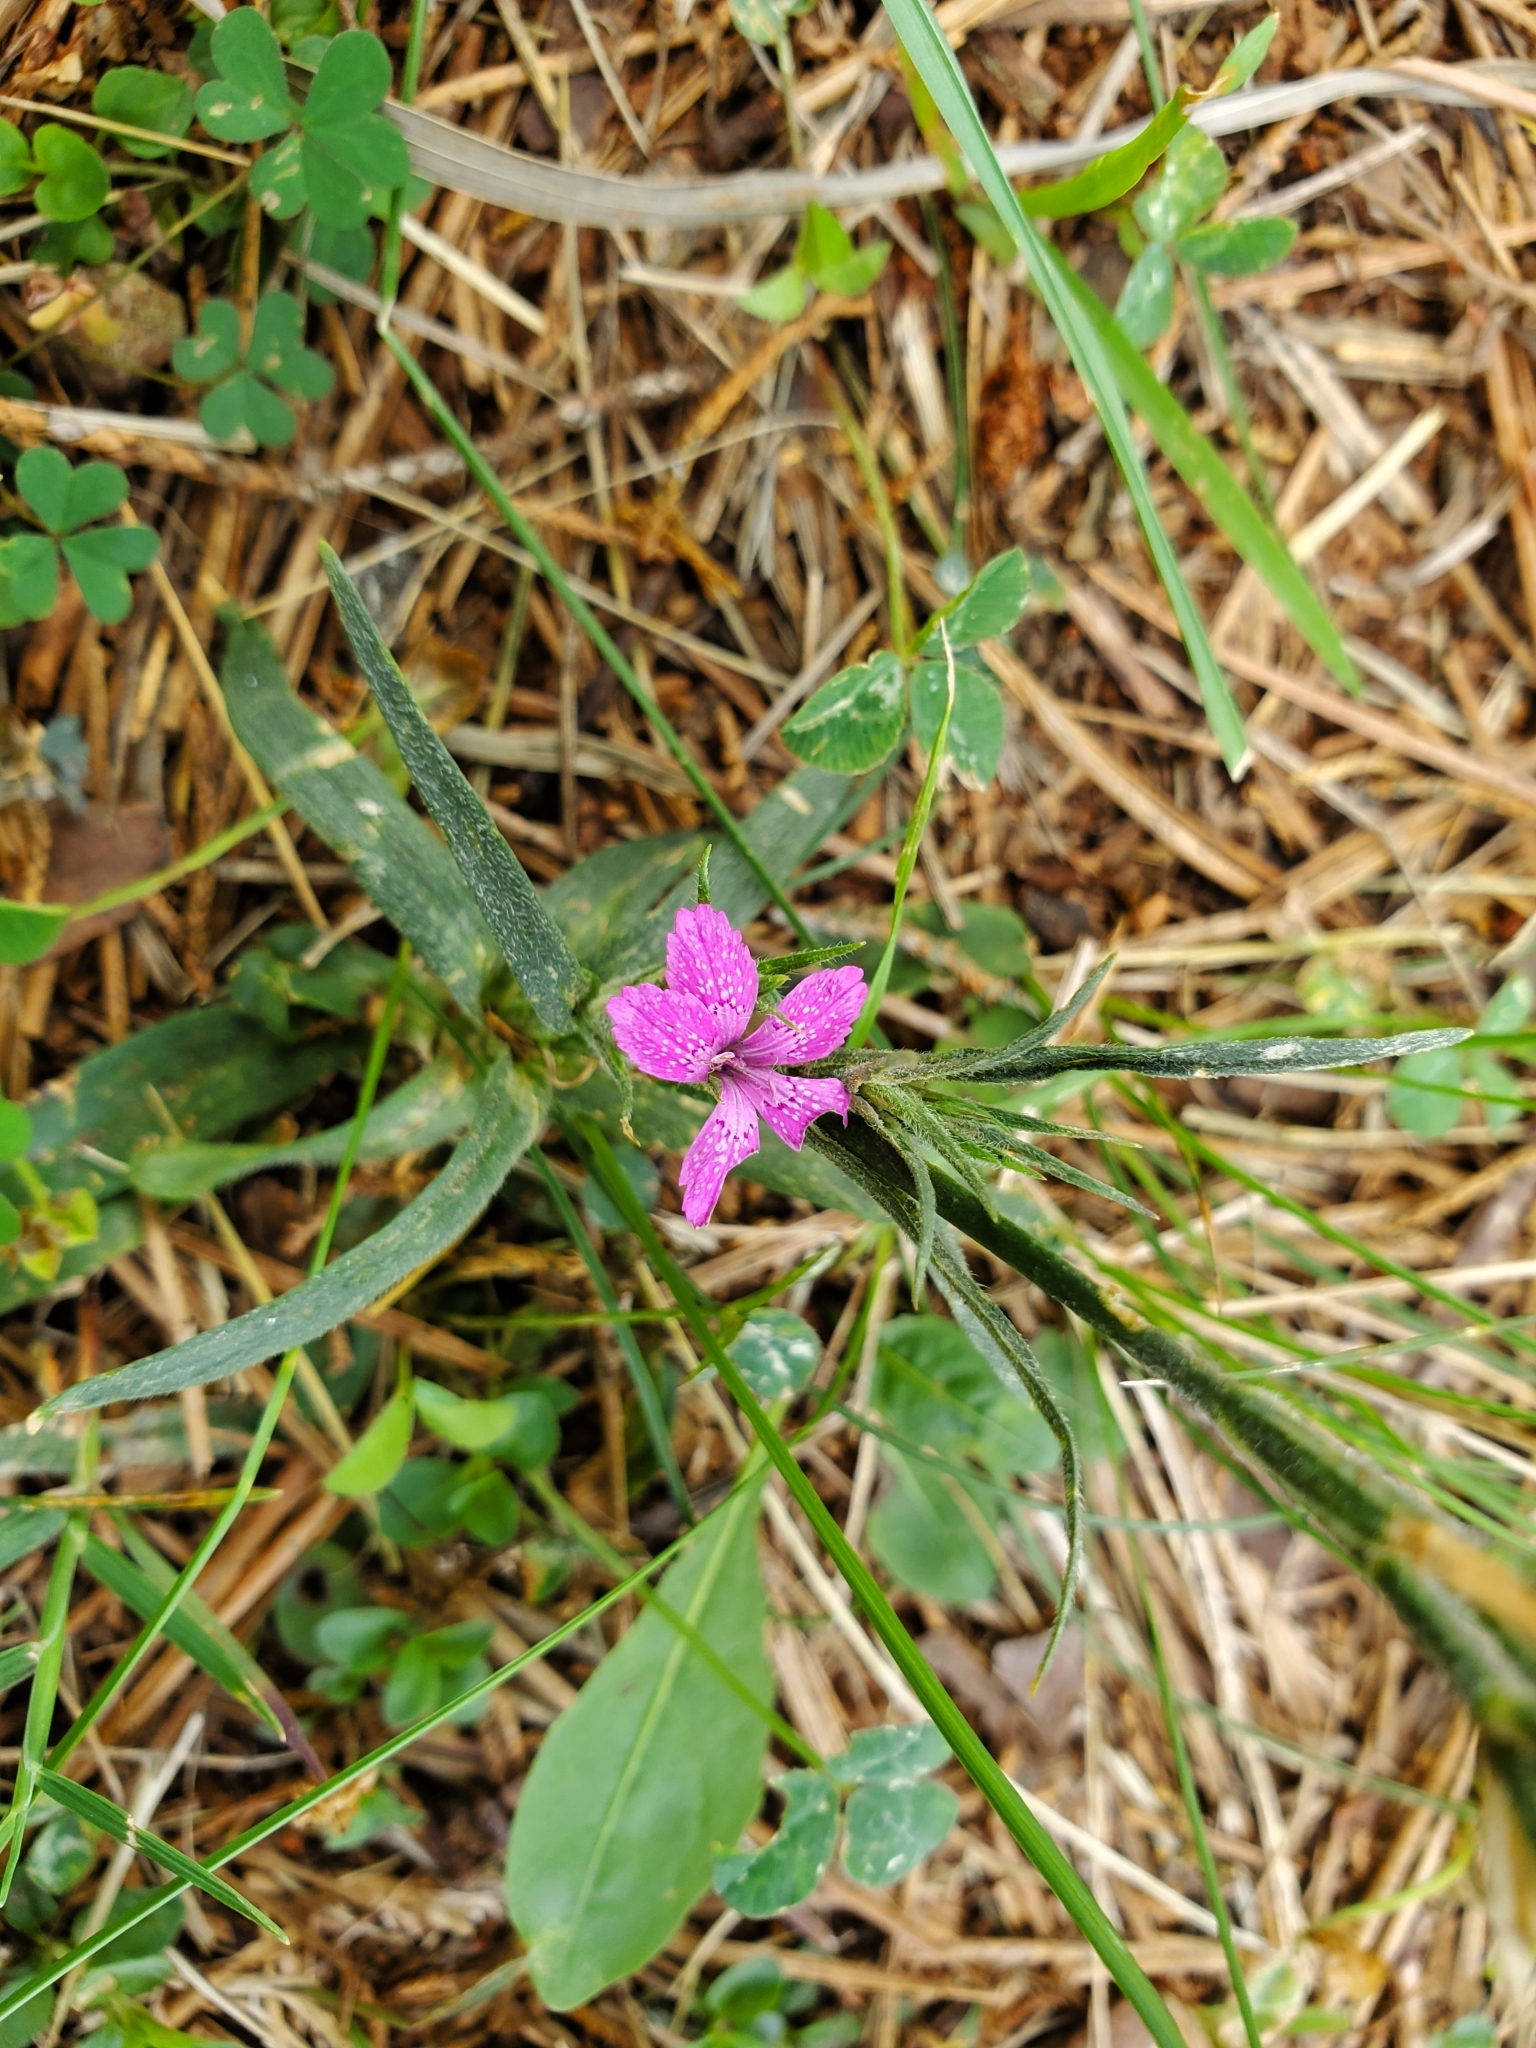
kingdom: Plantae
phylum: Tracheophyta
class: Magnoliopsida
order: Caryophyllales
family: Caryophyllaceae
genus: Dianthus
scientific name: Dianthus armeria
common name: Deptford pink
